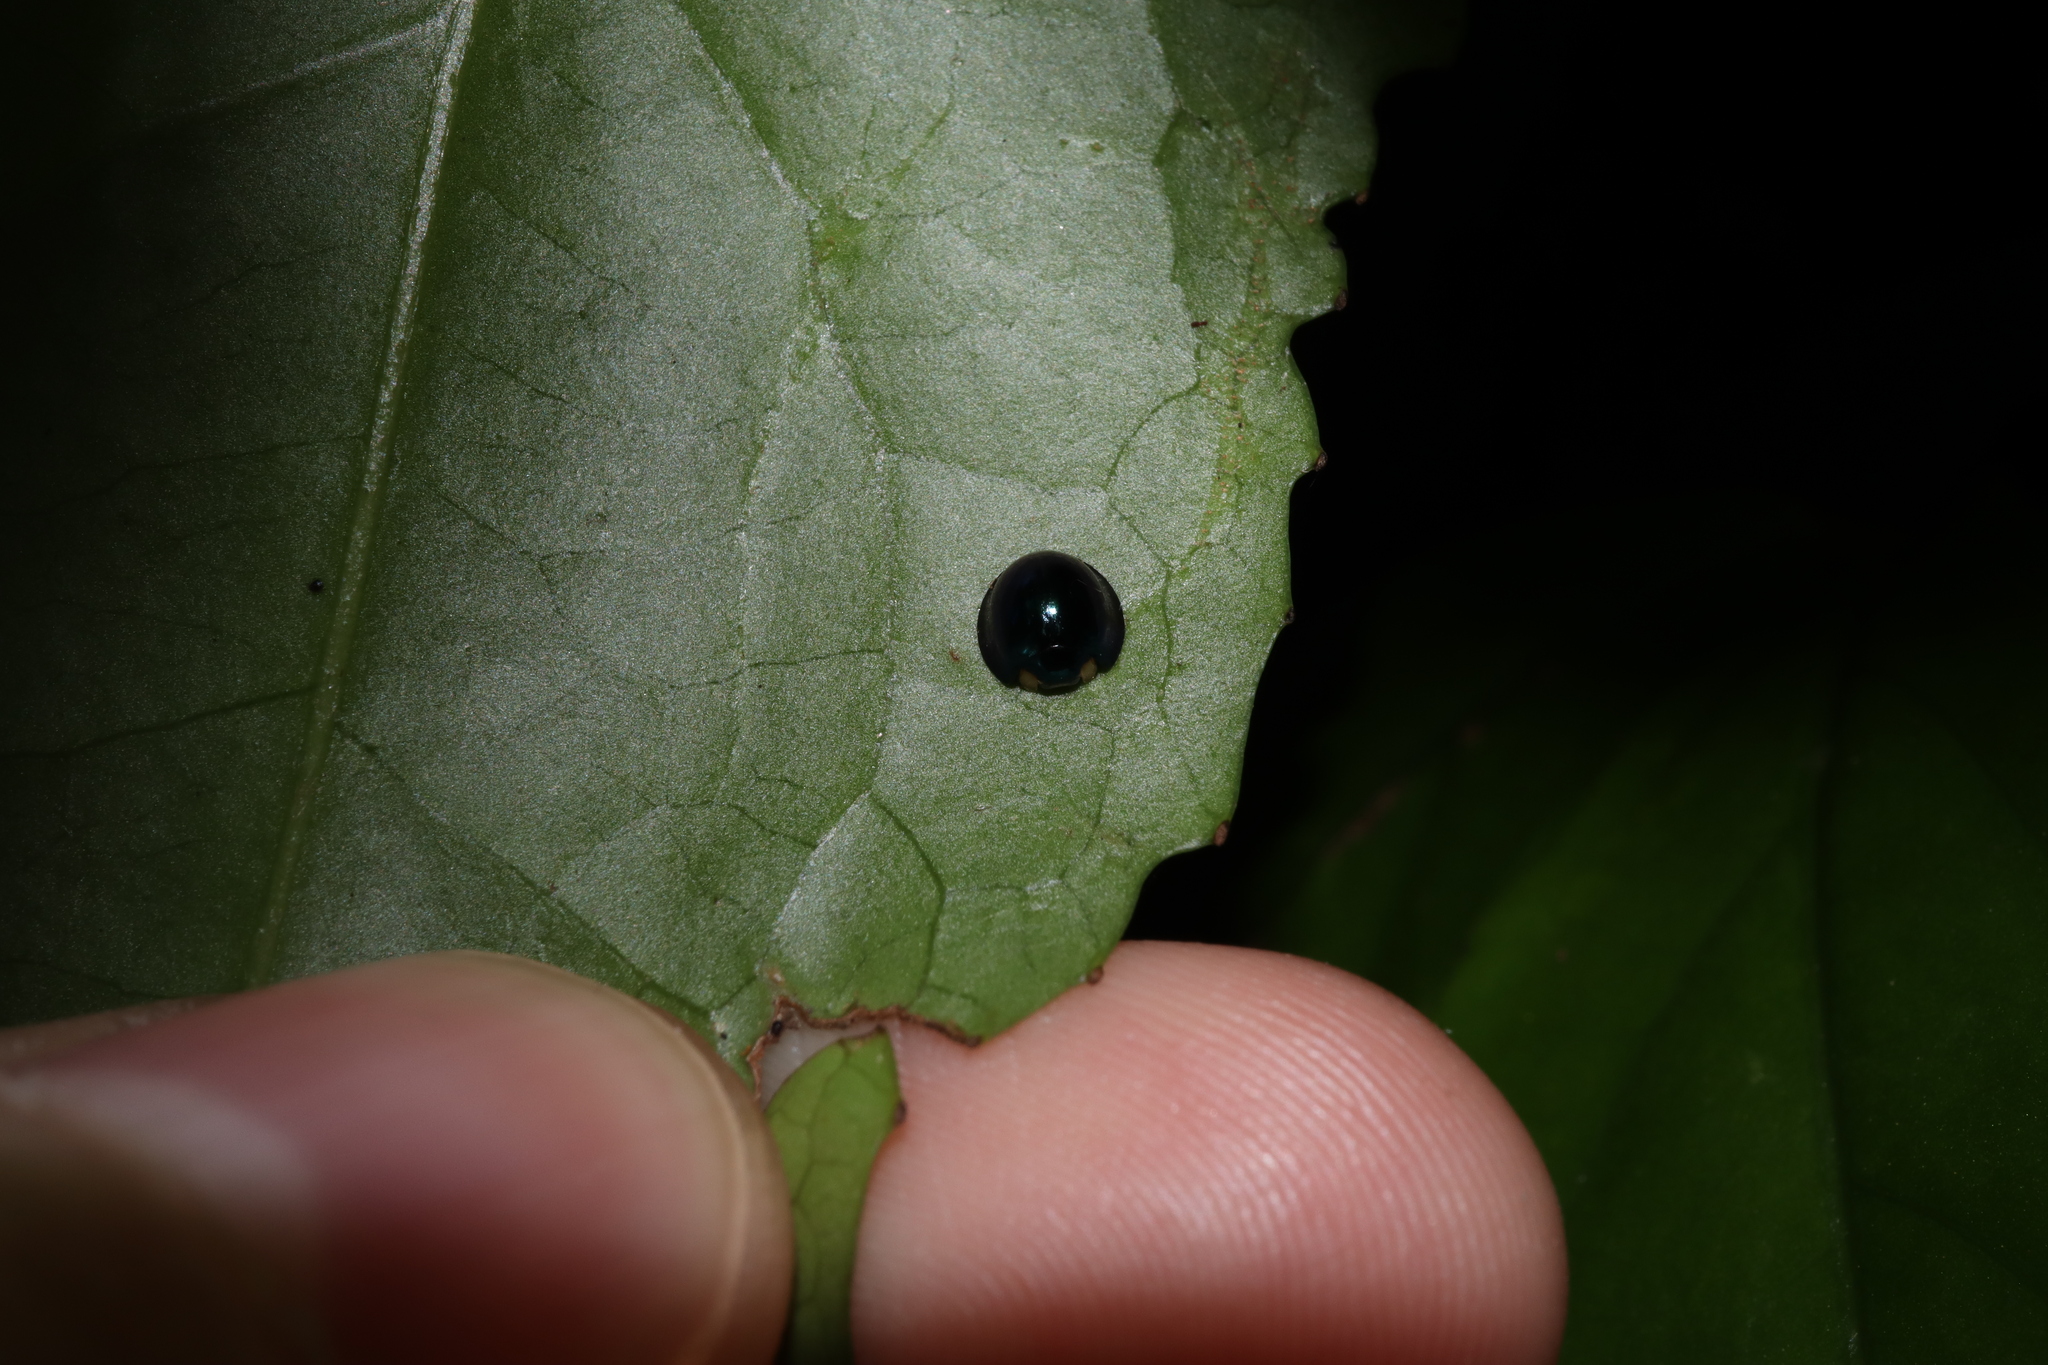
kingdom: Animalia
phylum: Arthropoda
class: Insecta
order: Coleoptera
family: Coccinellidae
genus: Halmus
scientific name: Halmus chalybeus
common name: Steel blue ladybird beetle
